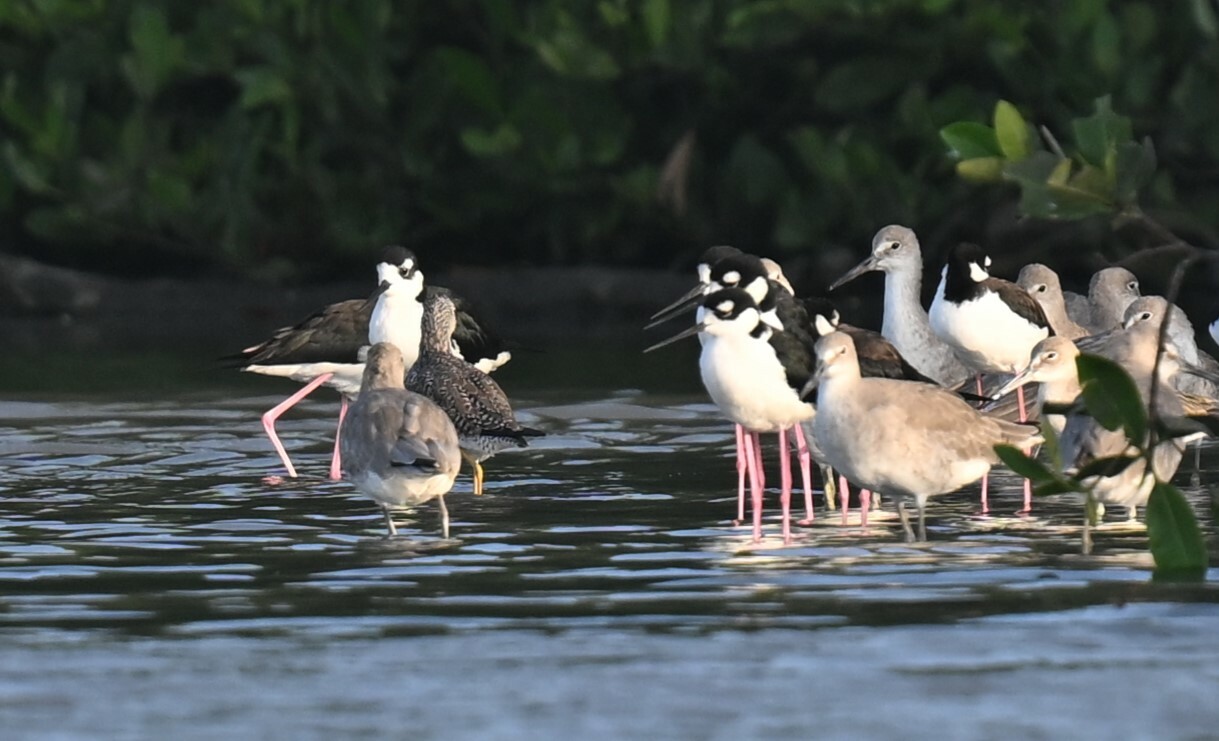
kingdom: Animalia
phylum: Chordata
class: Aves
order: Charadriiformes
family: Recurvirostridae
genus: Himantopus
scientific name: Himantopus mexicanus
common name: Black-necked stilt
